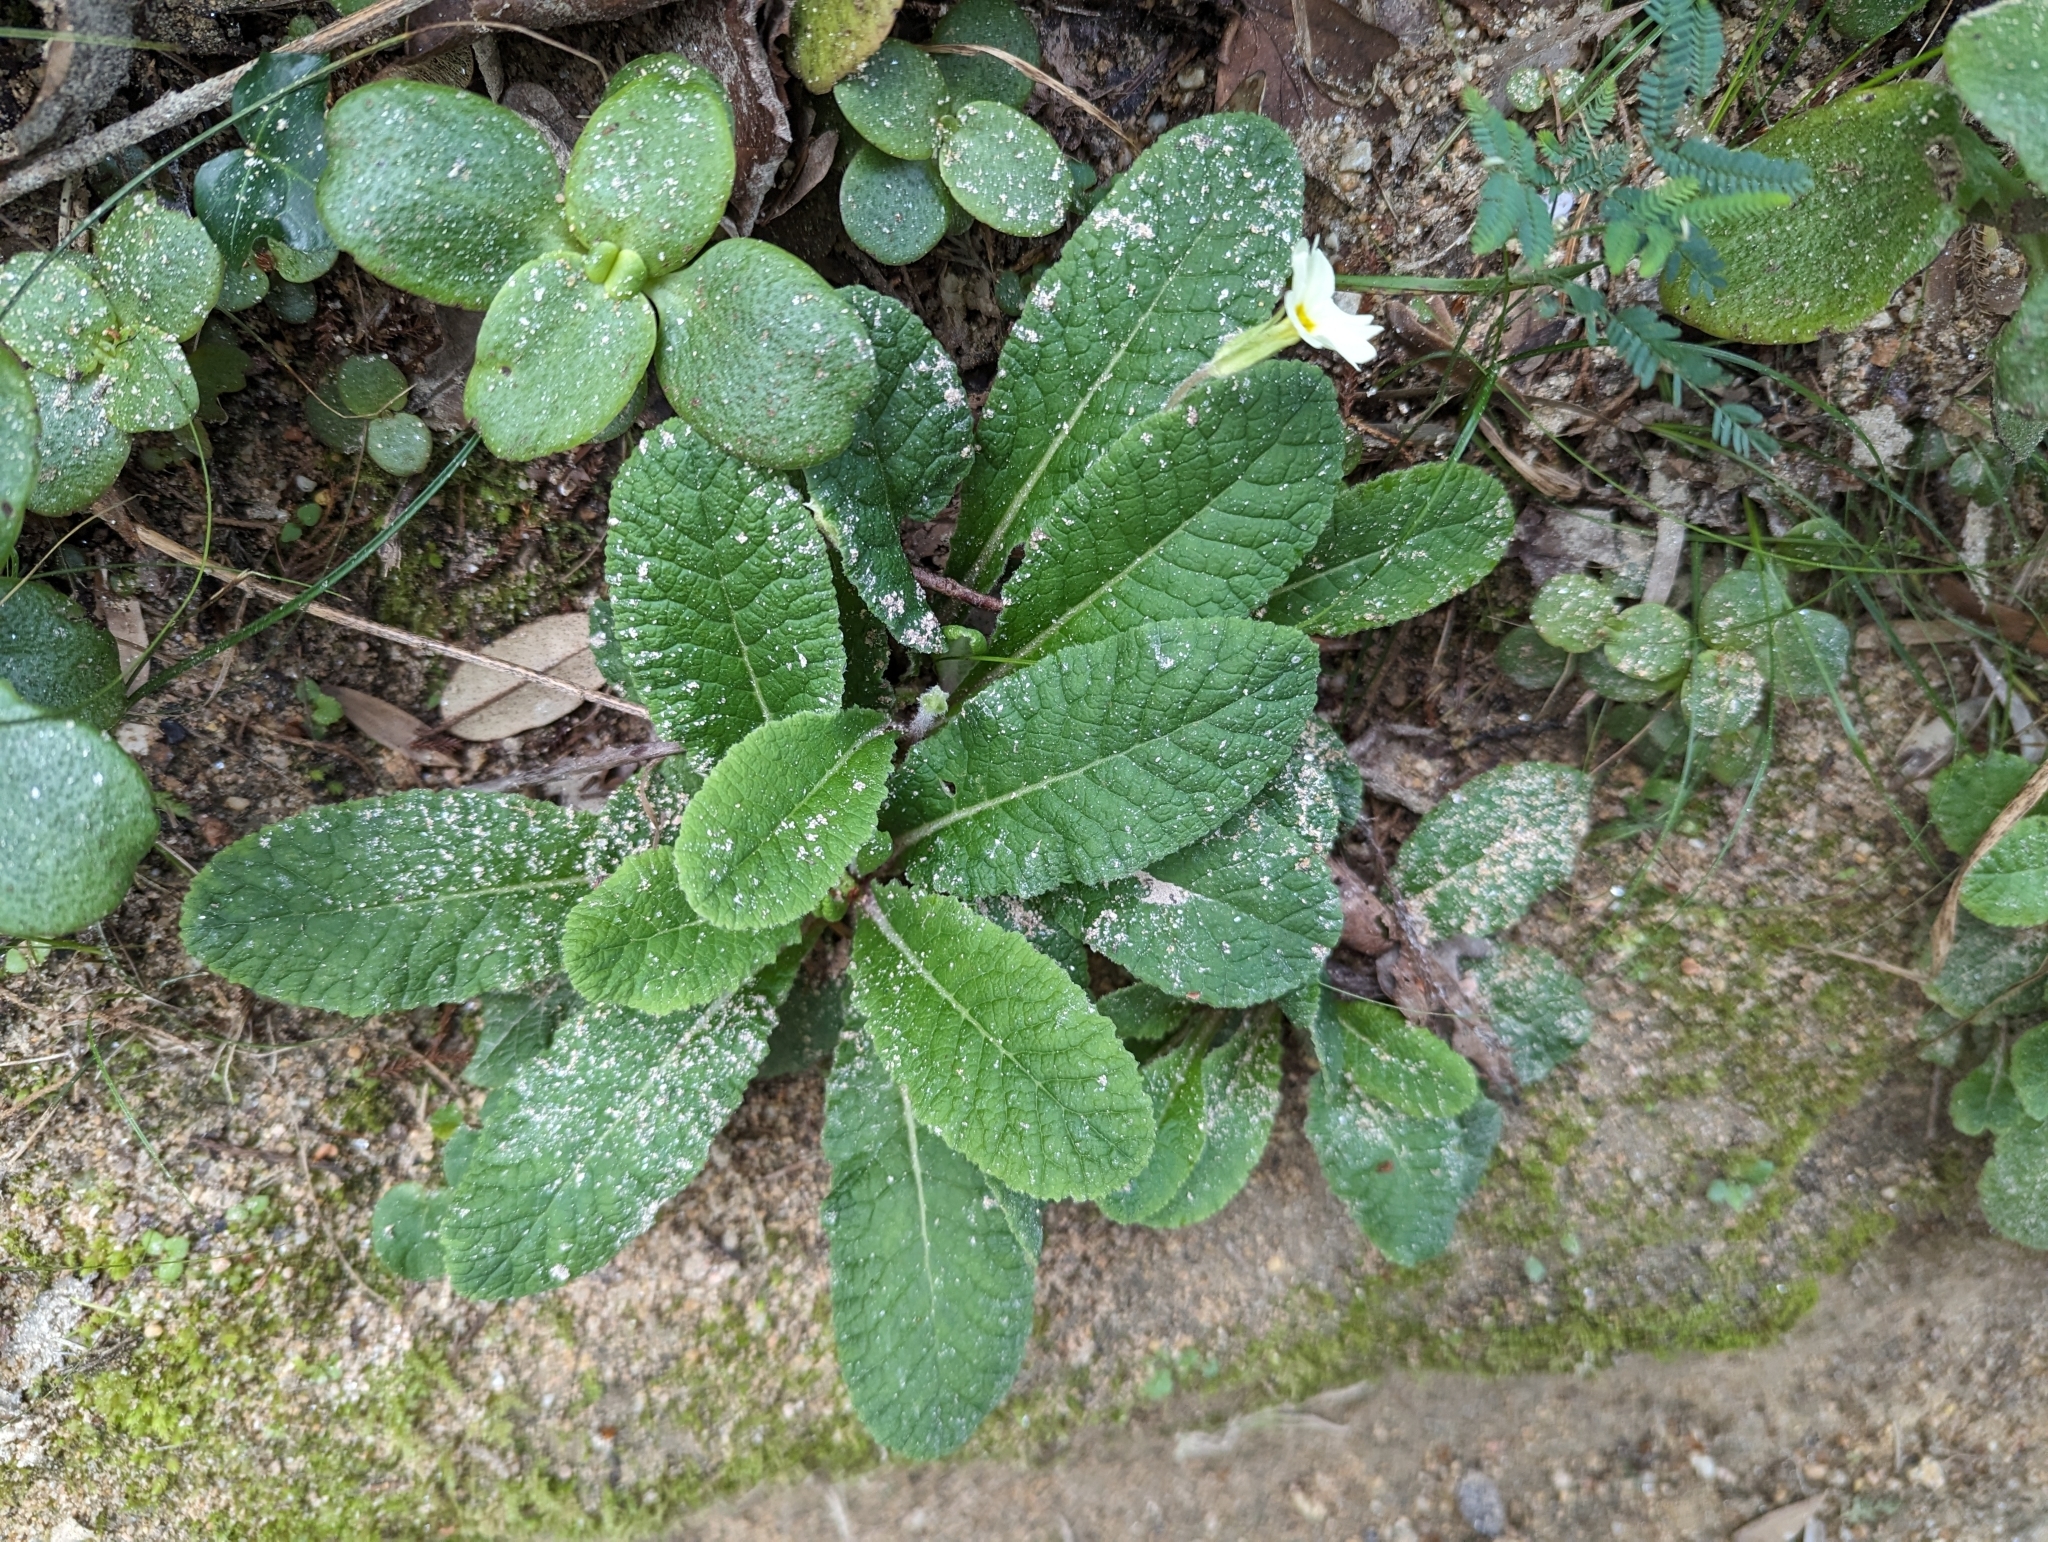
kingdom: Plantae
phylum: Tracheophyta
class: Magnoliopsida
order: Ericales
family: Primulaceae
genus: Primula
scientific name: Primula vulgaris
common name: Primrose
